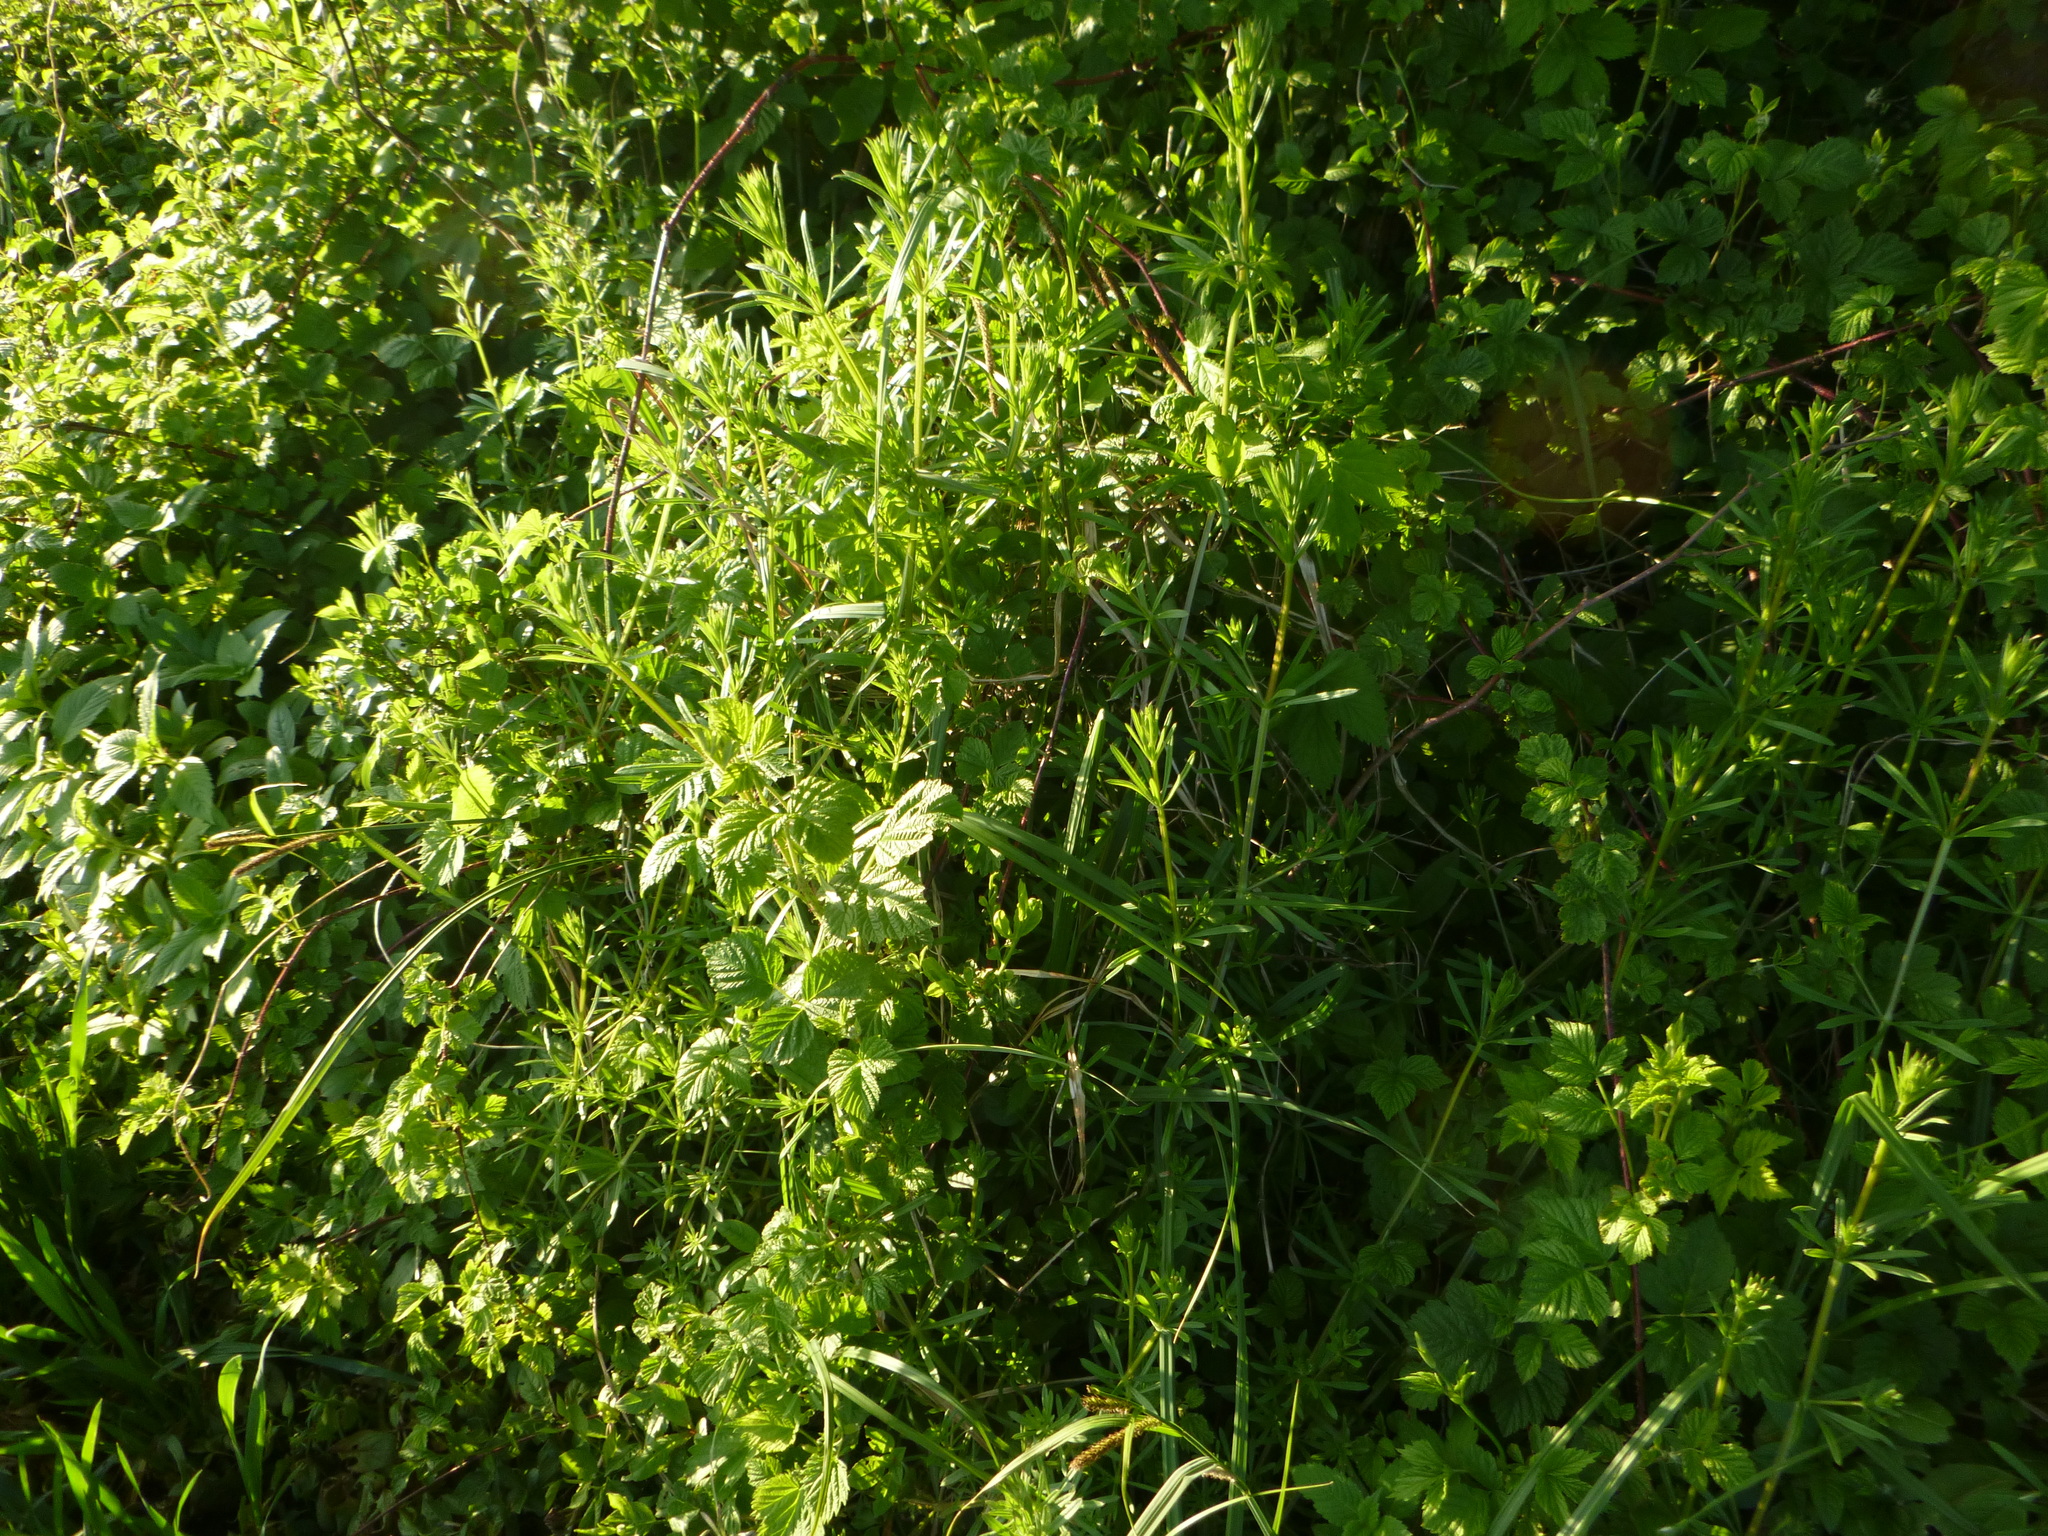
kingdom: Plantae
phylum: Tracheophyta
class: Magnoliopsida
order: Gentianales
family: Rubiaceae
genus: Galium
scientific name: Galium aparine
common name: Cleavers
